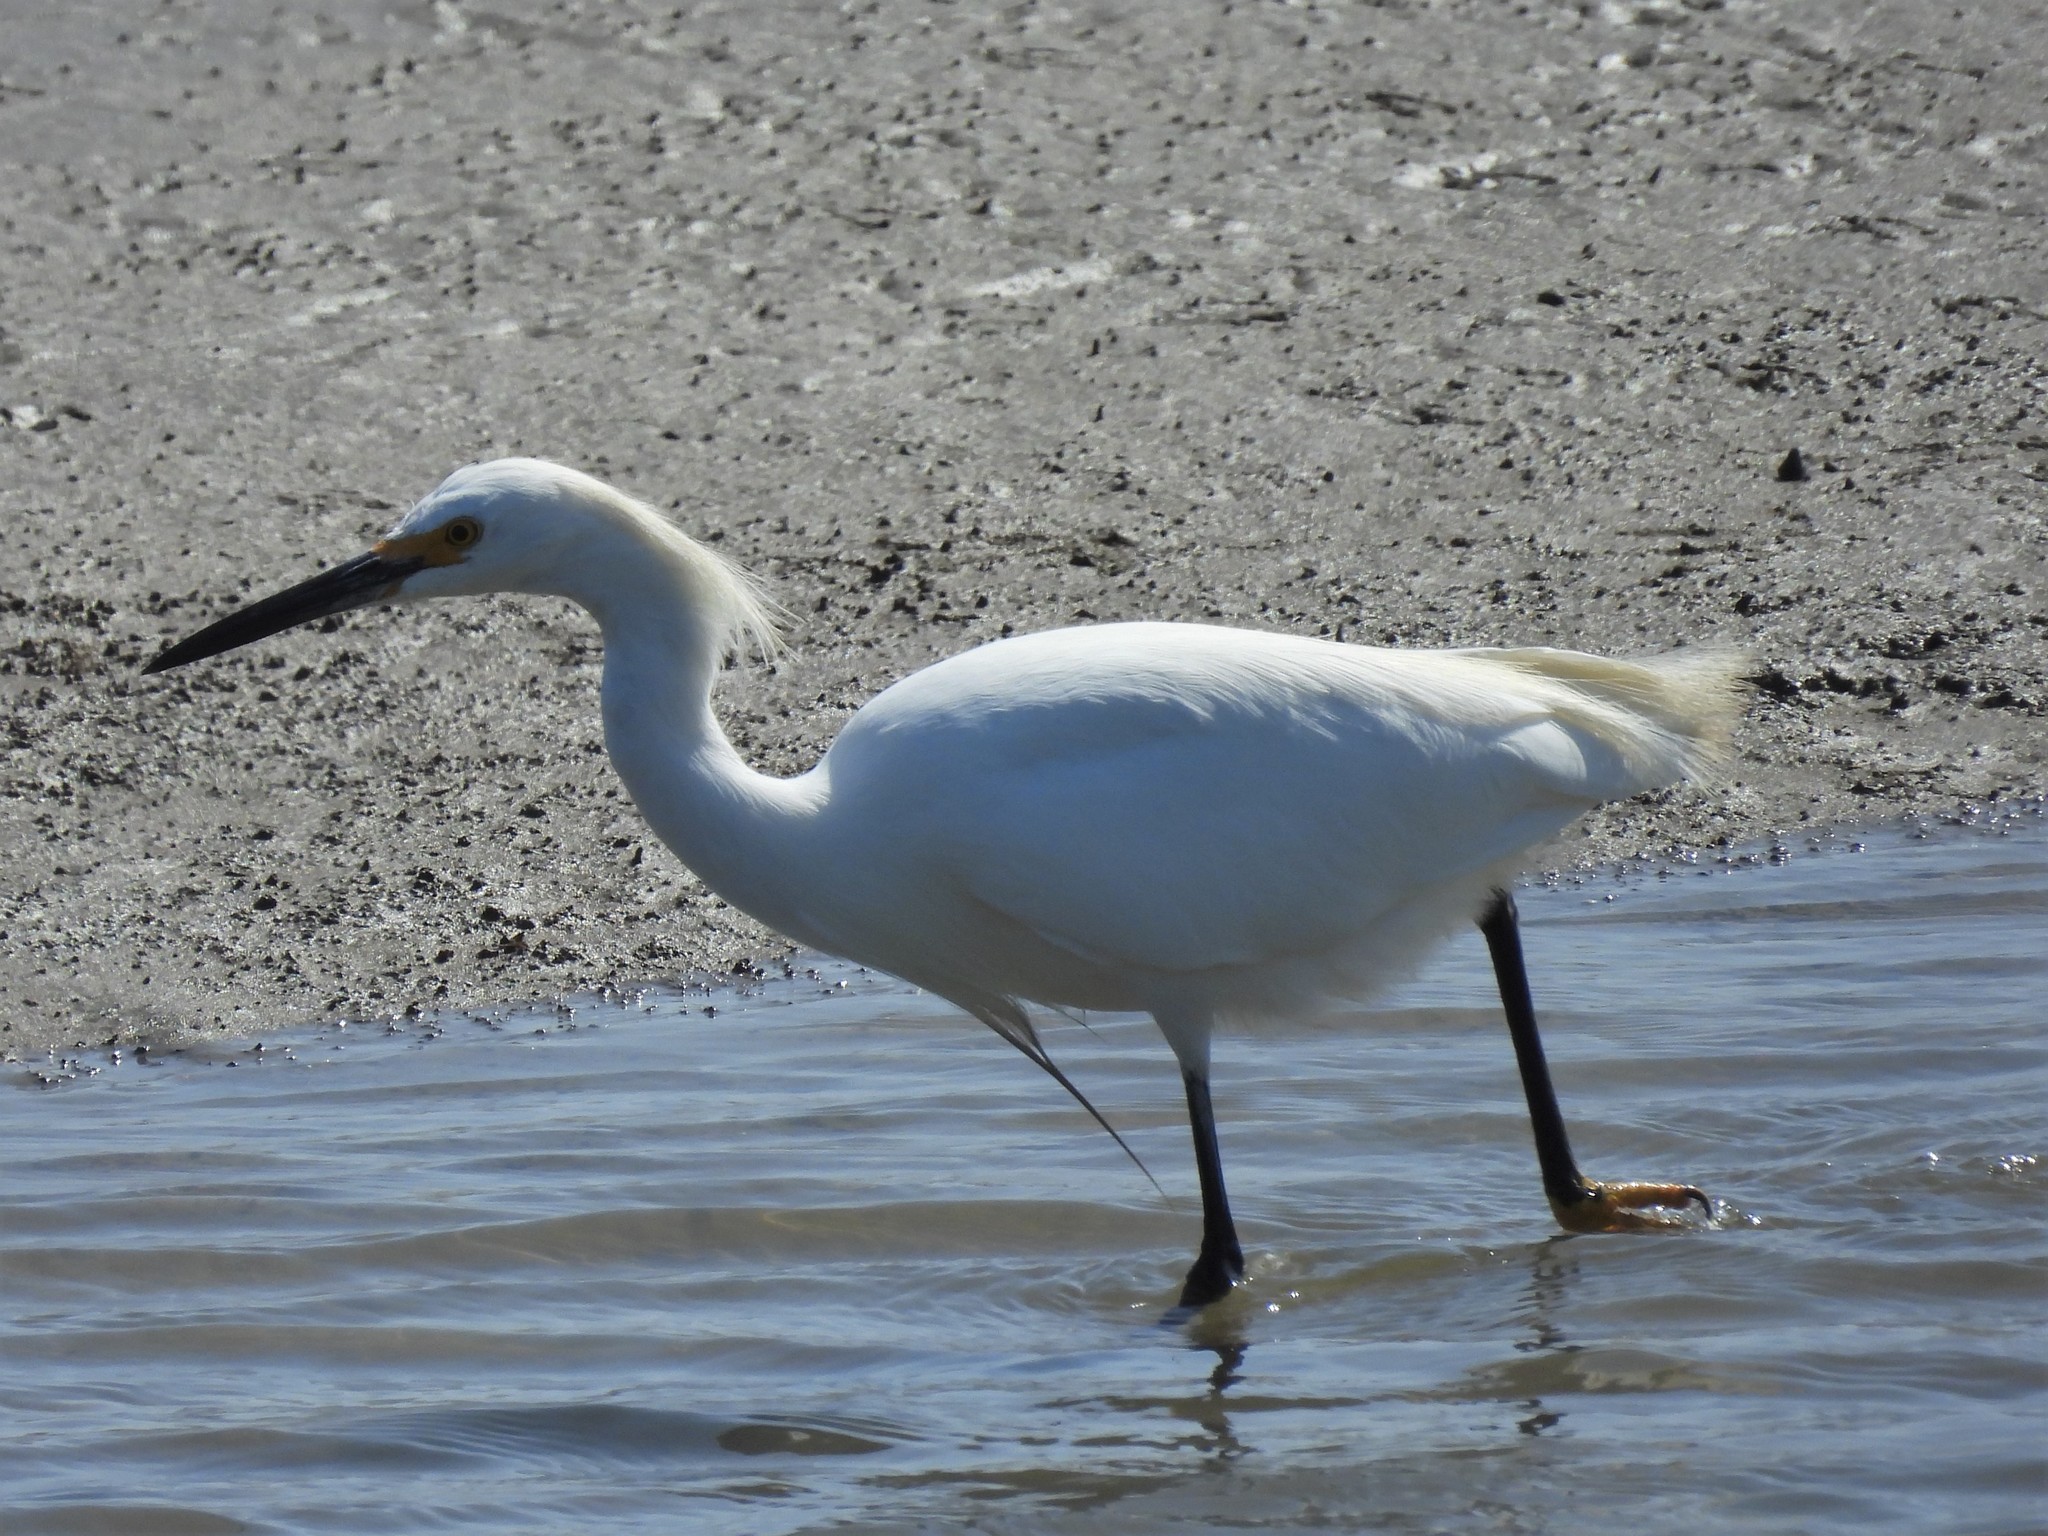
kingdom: Animalia
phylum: Chordata
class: Aves
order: Pelecaniformes
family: Ardeidae
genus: Egretta
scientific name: Egretta thula
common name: Snowy egret
